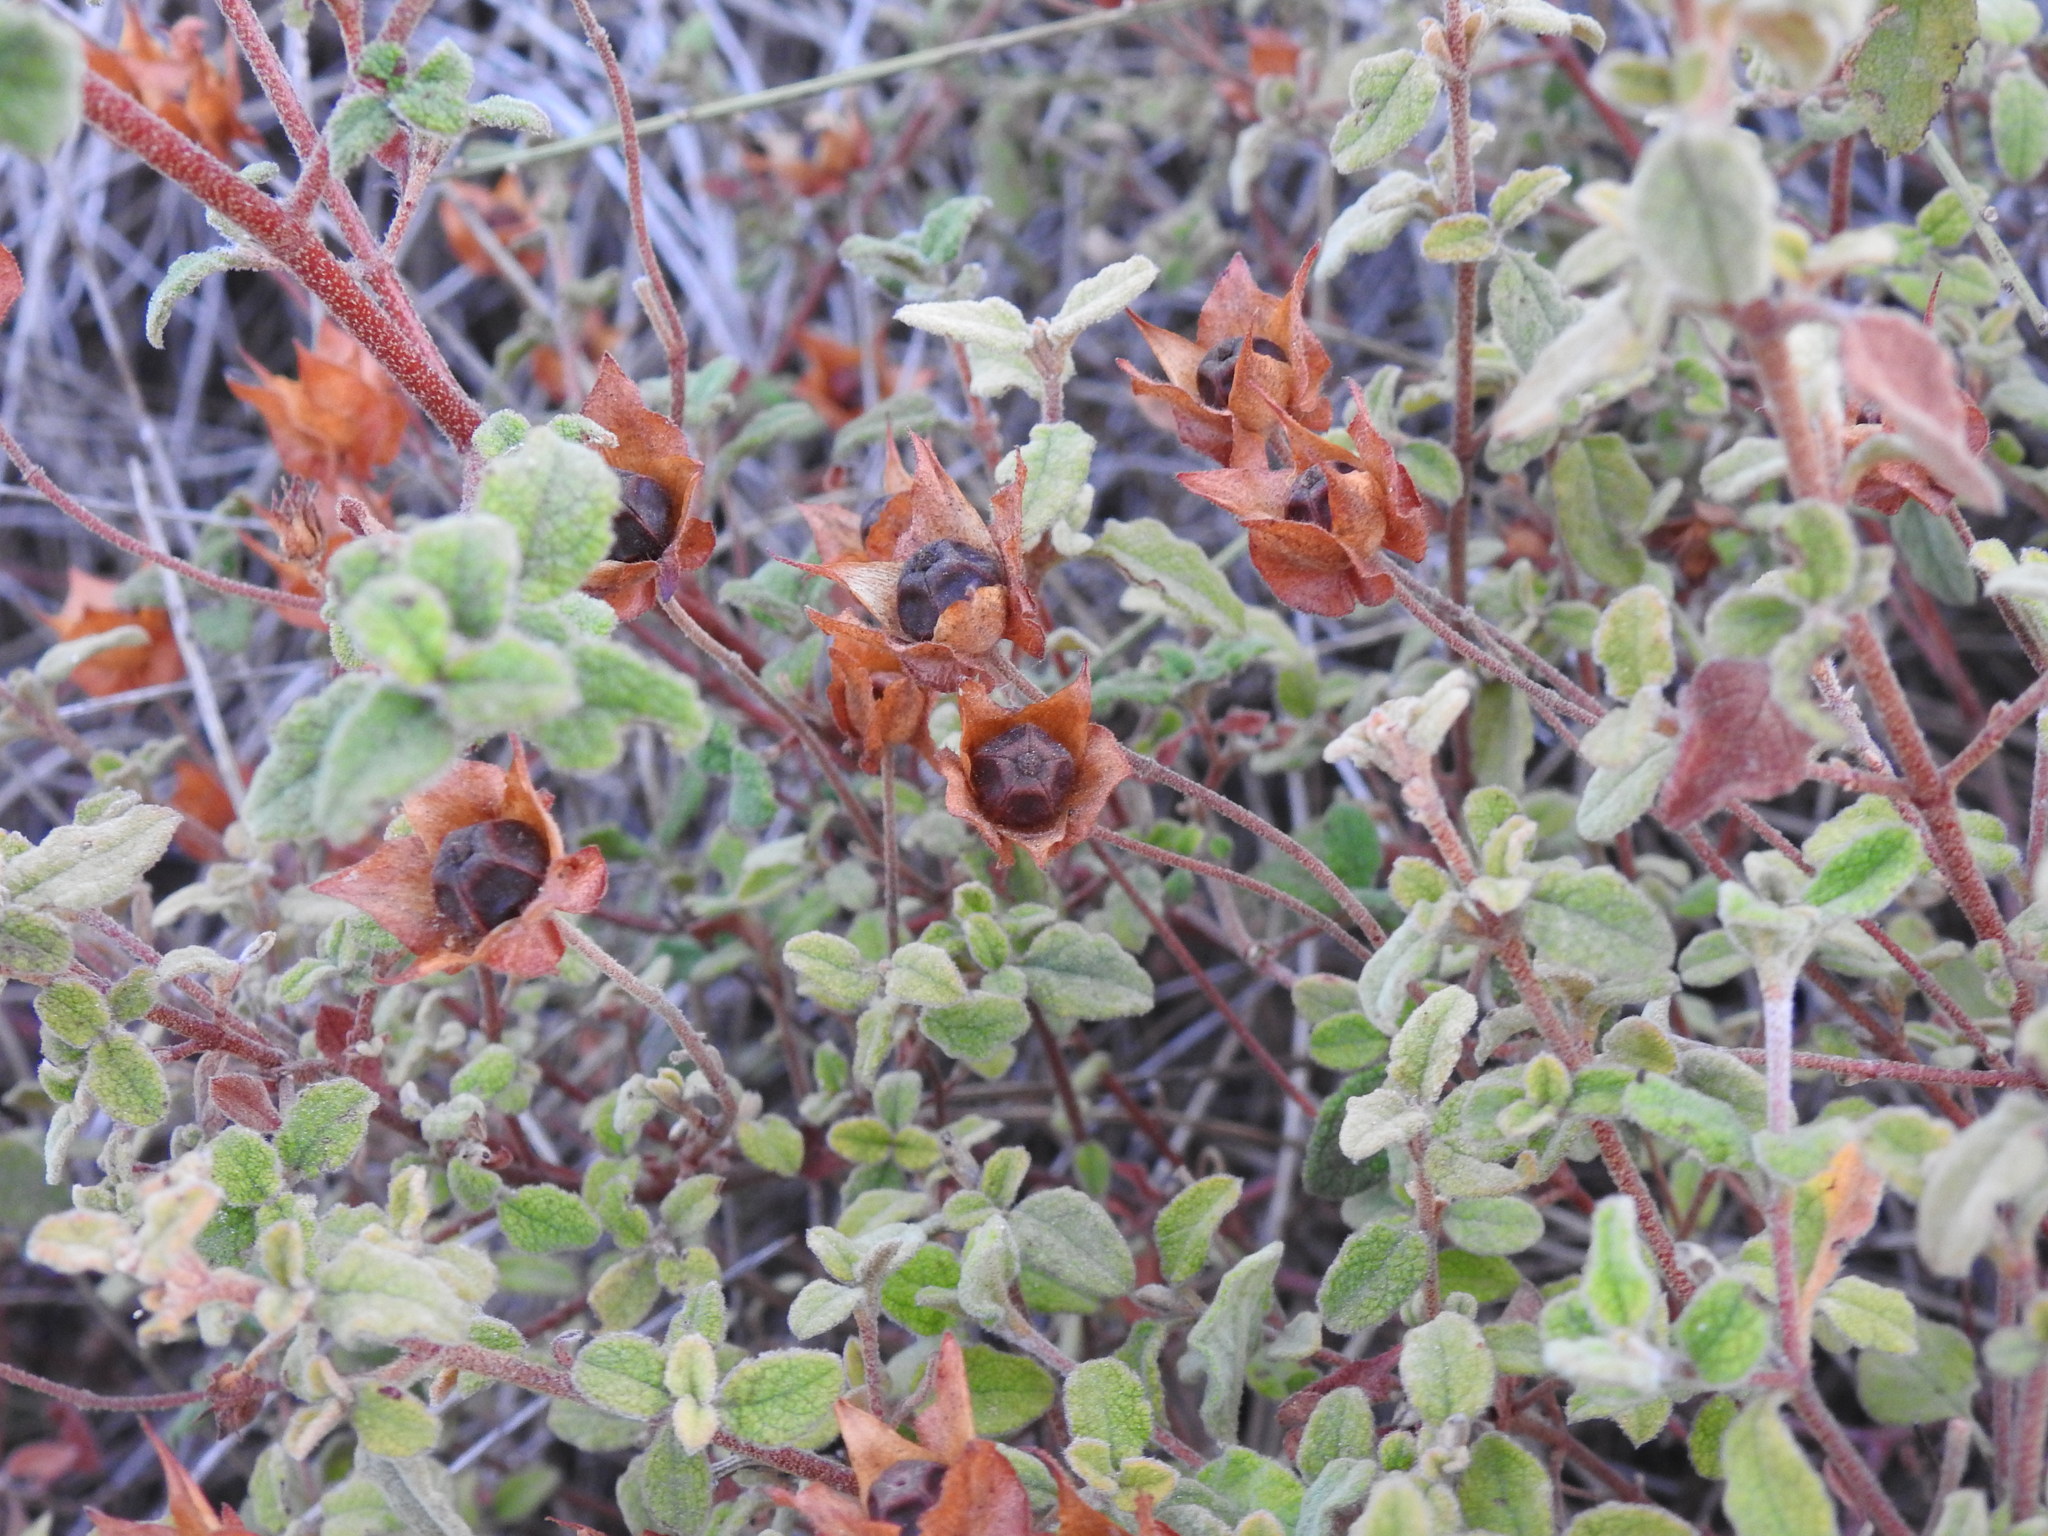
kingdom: Plantae
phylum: Tracheophyta
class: Magnoliopsida
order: Malvales
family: Cistaceae
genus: Cistus
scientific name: Cistus salviifolius
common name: Salvia cistus
